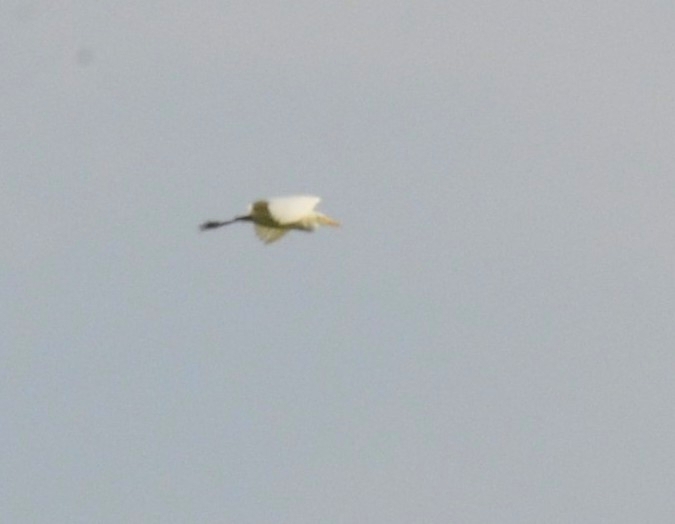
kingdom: Animalia
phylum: Chordata
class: Aves
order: Pelecaniformes
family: Ardeidae
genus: Bubulcus
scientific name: Bubulcus coromandus
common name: Eastern cattle egret
